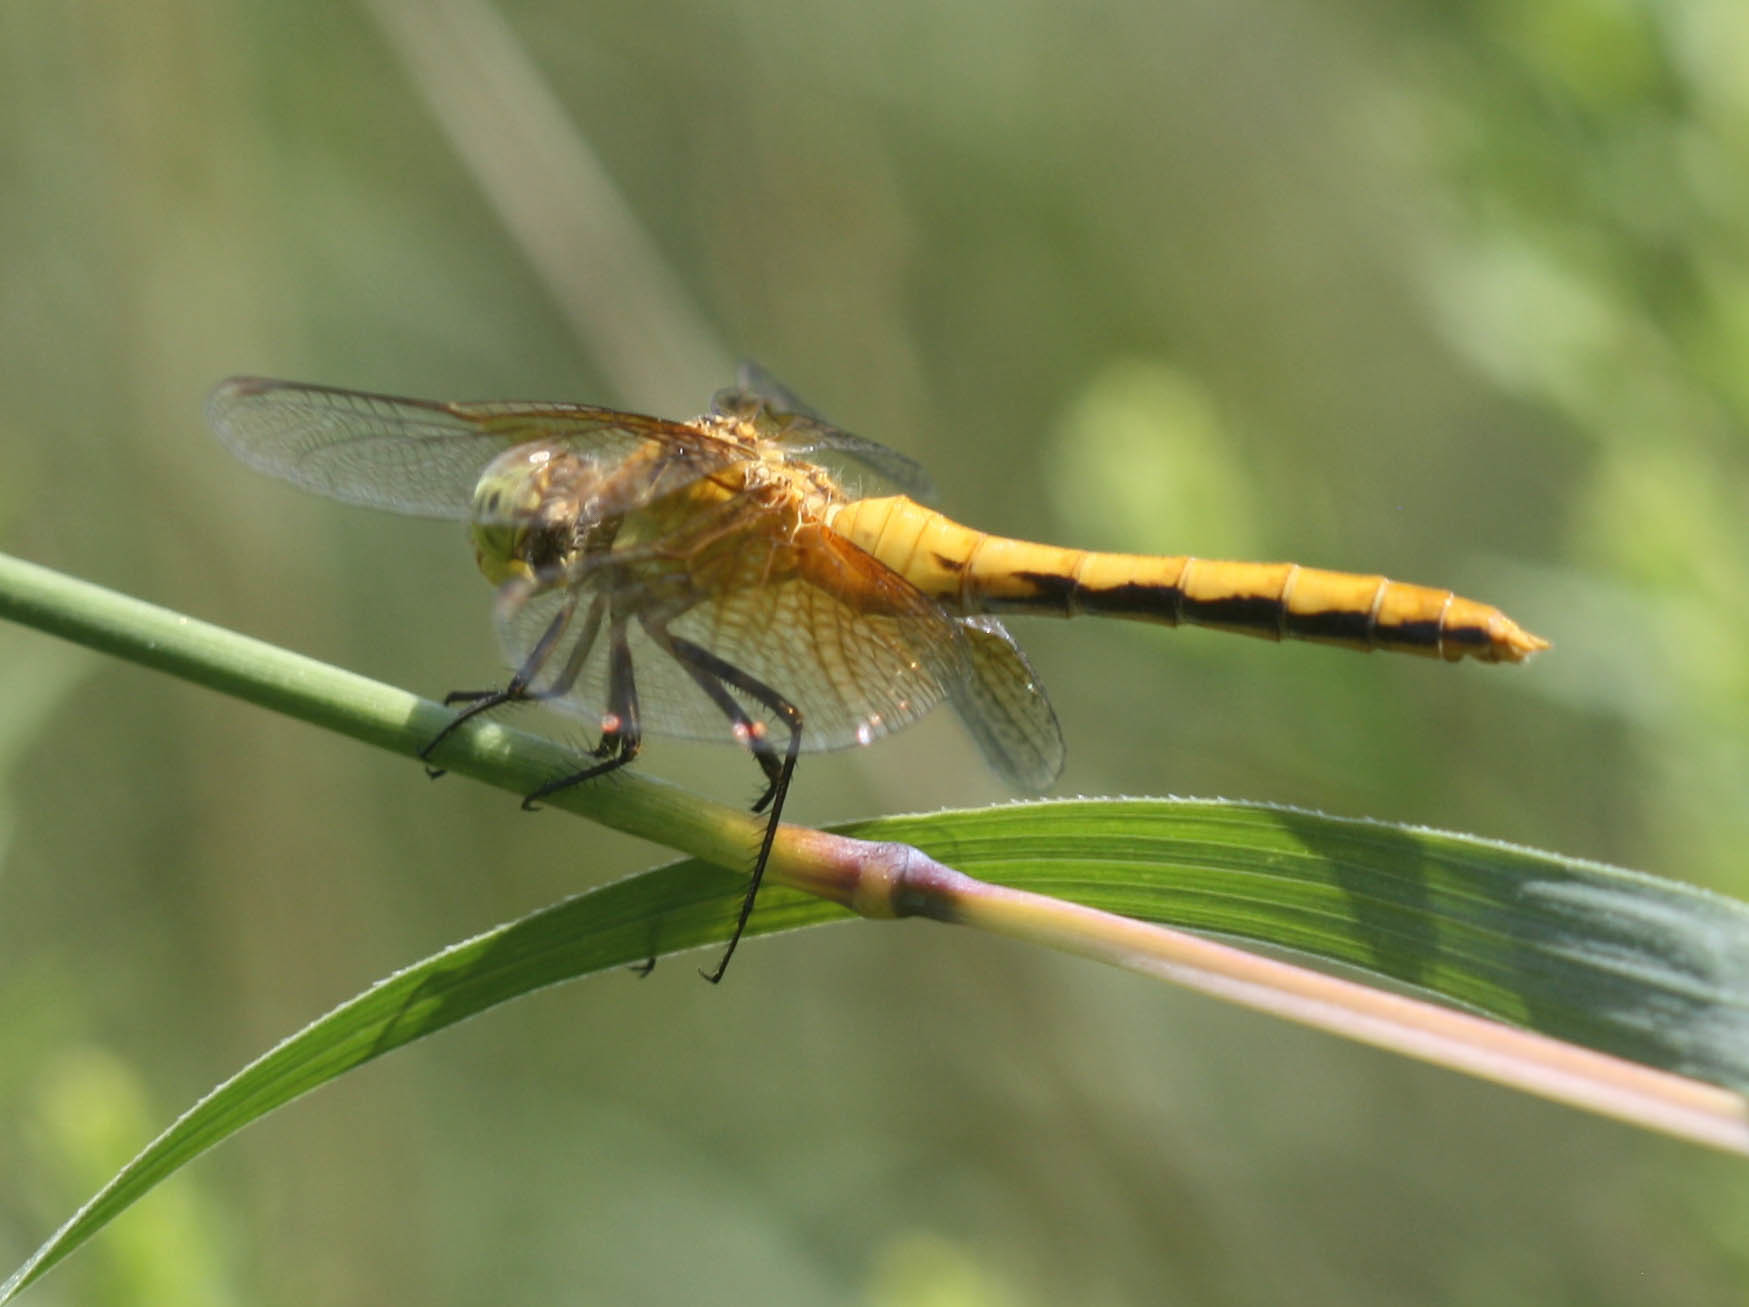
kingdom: Animalia
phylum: Arthropoda
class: Insecta
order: Odonata
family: Libellulidae
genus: Sympetrum
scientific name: Sympetrum semicinctum
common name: Band-winged meadowhawk
